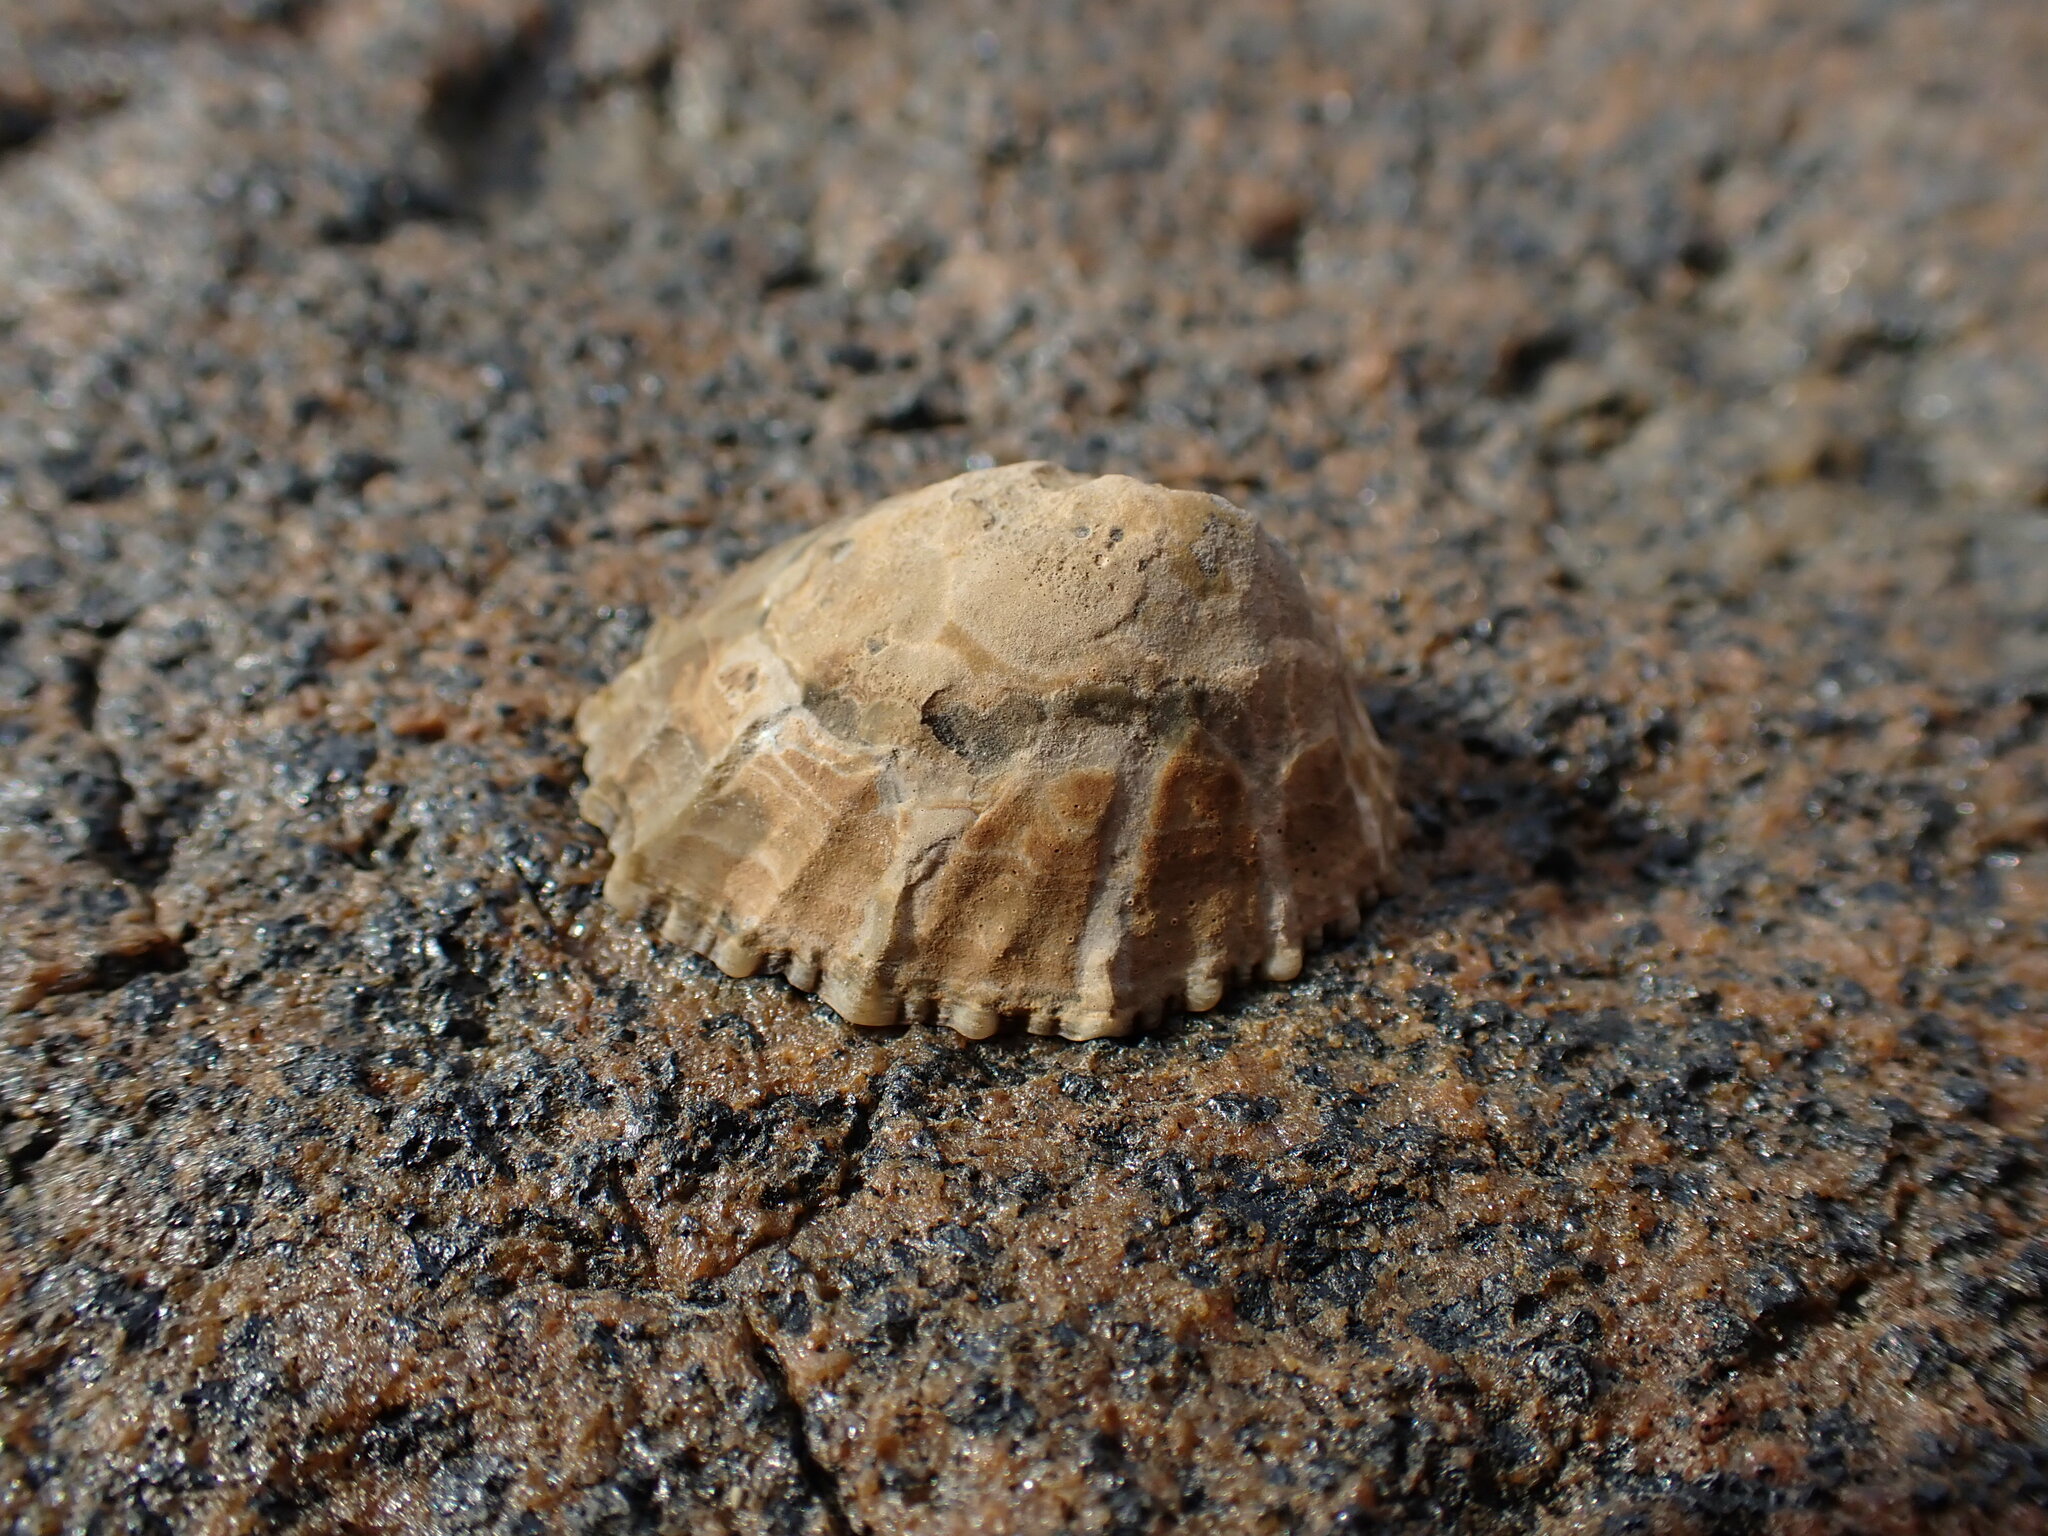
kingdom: Animalia
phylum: Mollusca
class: Gastropoda
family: Nacellidae
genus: Cellana
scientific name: Cellana ornata
